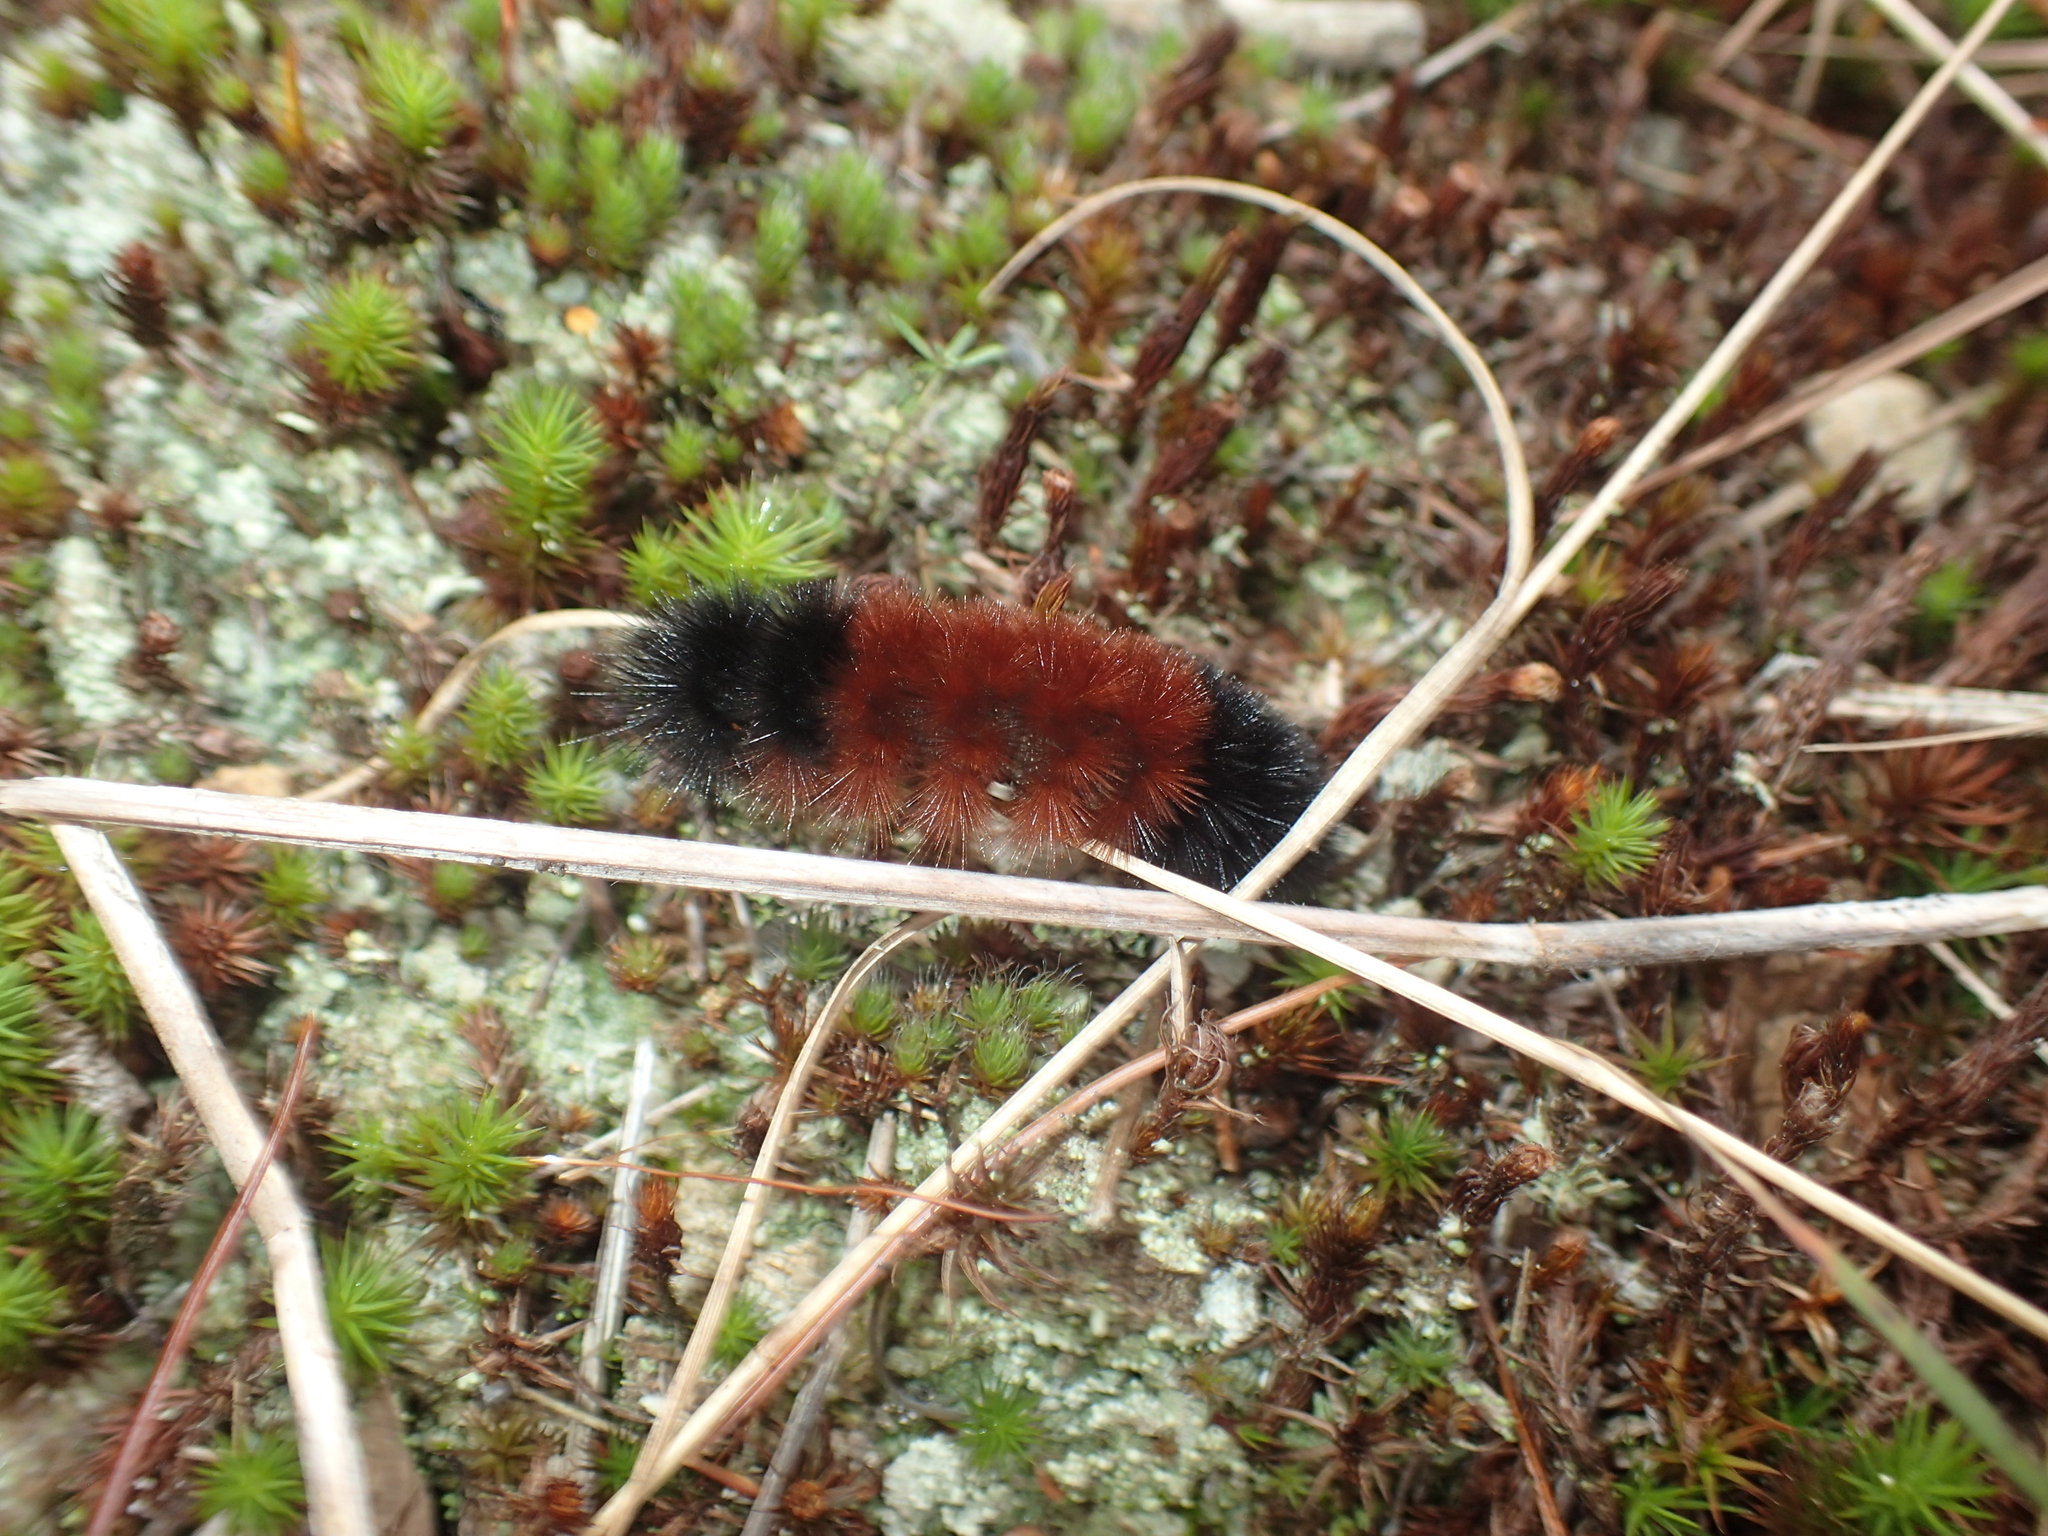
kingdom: Animalia
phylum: Arthropoda
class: Insecta
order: Lepidoptera
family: Erebidae
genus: Pyrrharctia
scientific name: Pyrrharctia isabella
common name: Isabella tiger moth
